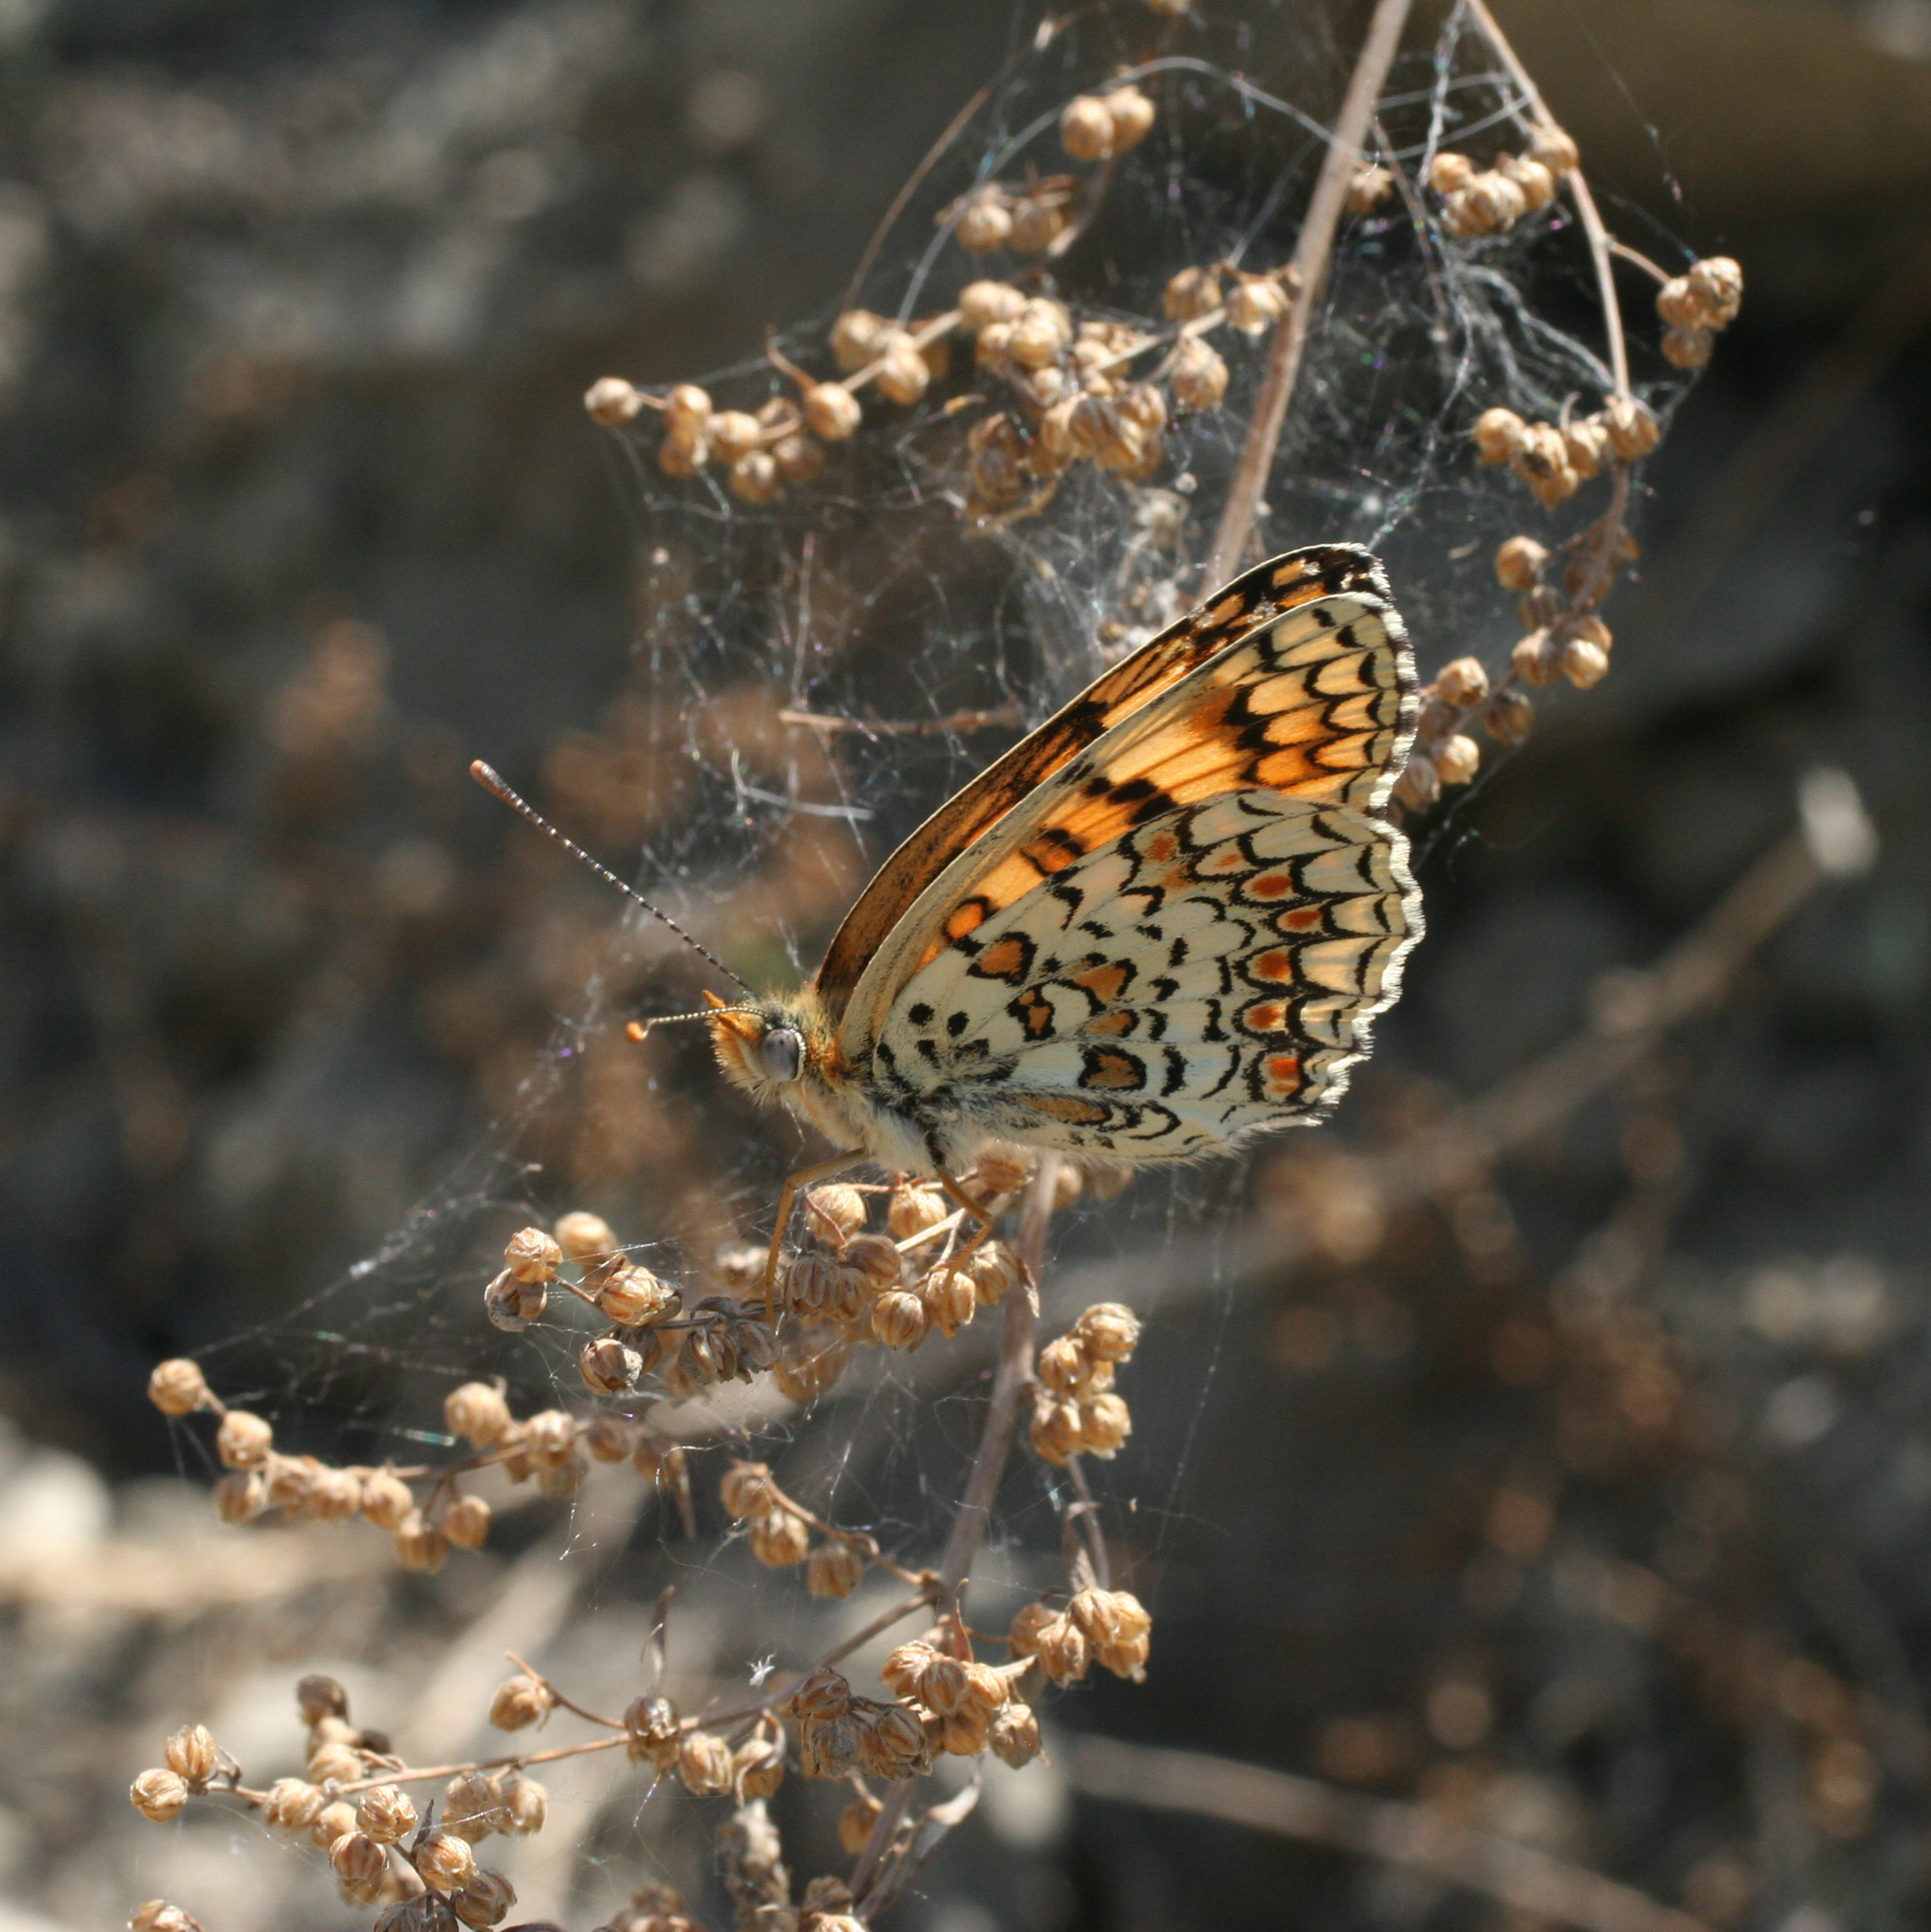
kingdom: Animalia
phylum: Arthropoda
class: Insecta
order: Lepidoptera
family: Nymphalidae
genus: Melitaea
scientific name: Melitaea phoebe
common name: Knapweed fritillary
